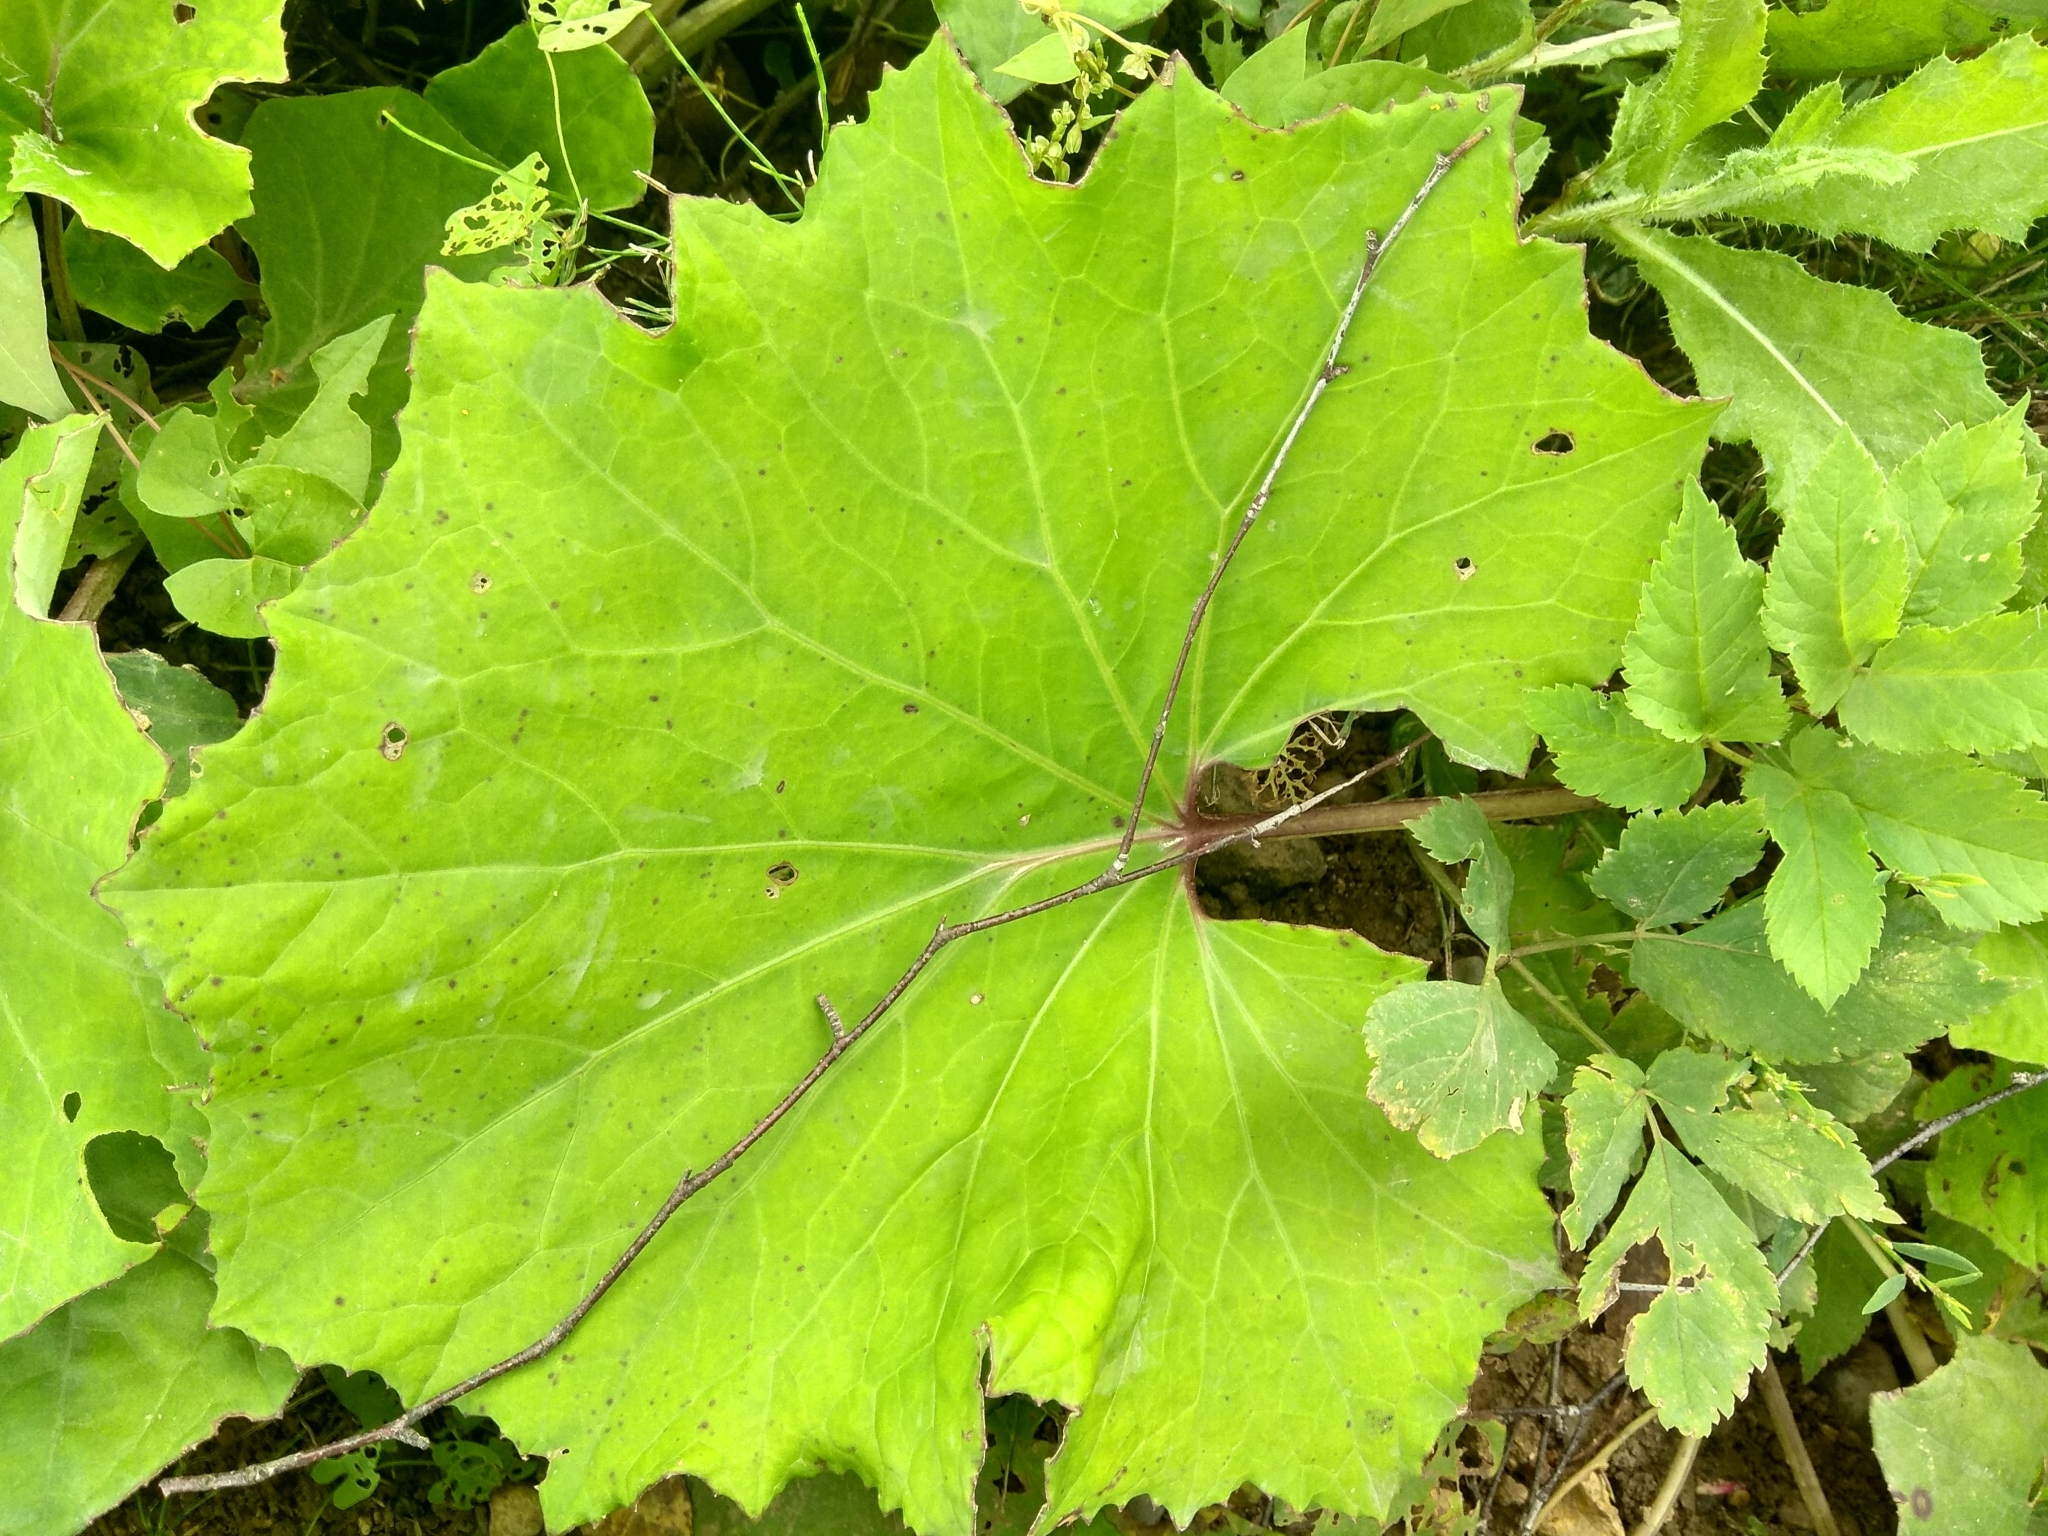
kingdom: Plantae
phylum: Tracheophyta
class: Magnoliopsida
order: Asterales
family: Asteraceae
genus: Tussilago
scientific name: Tussilago farfara
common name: Coltsfoot
